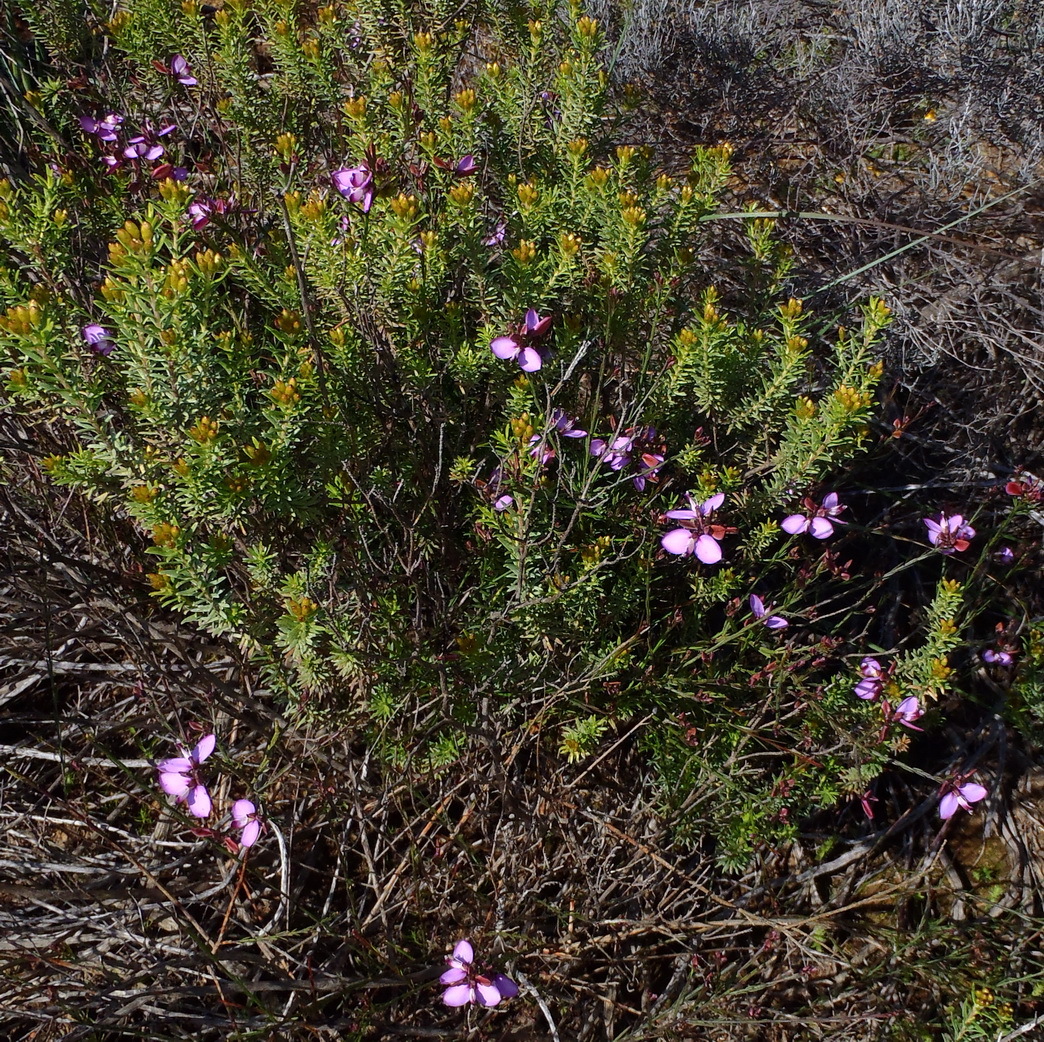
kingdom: Plantae
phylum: Tracheophyta
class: Magnoliopsida
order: Fabales
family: Polygalaceae
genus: Polygala
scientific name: Polygala microlopha
